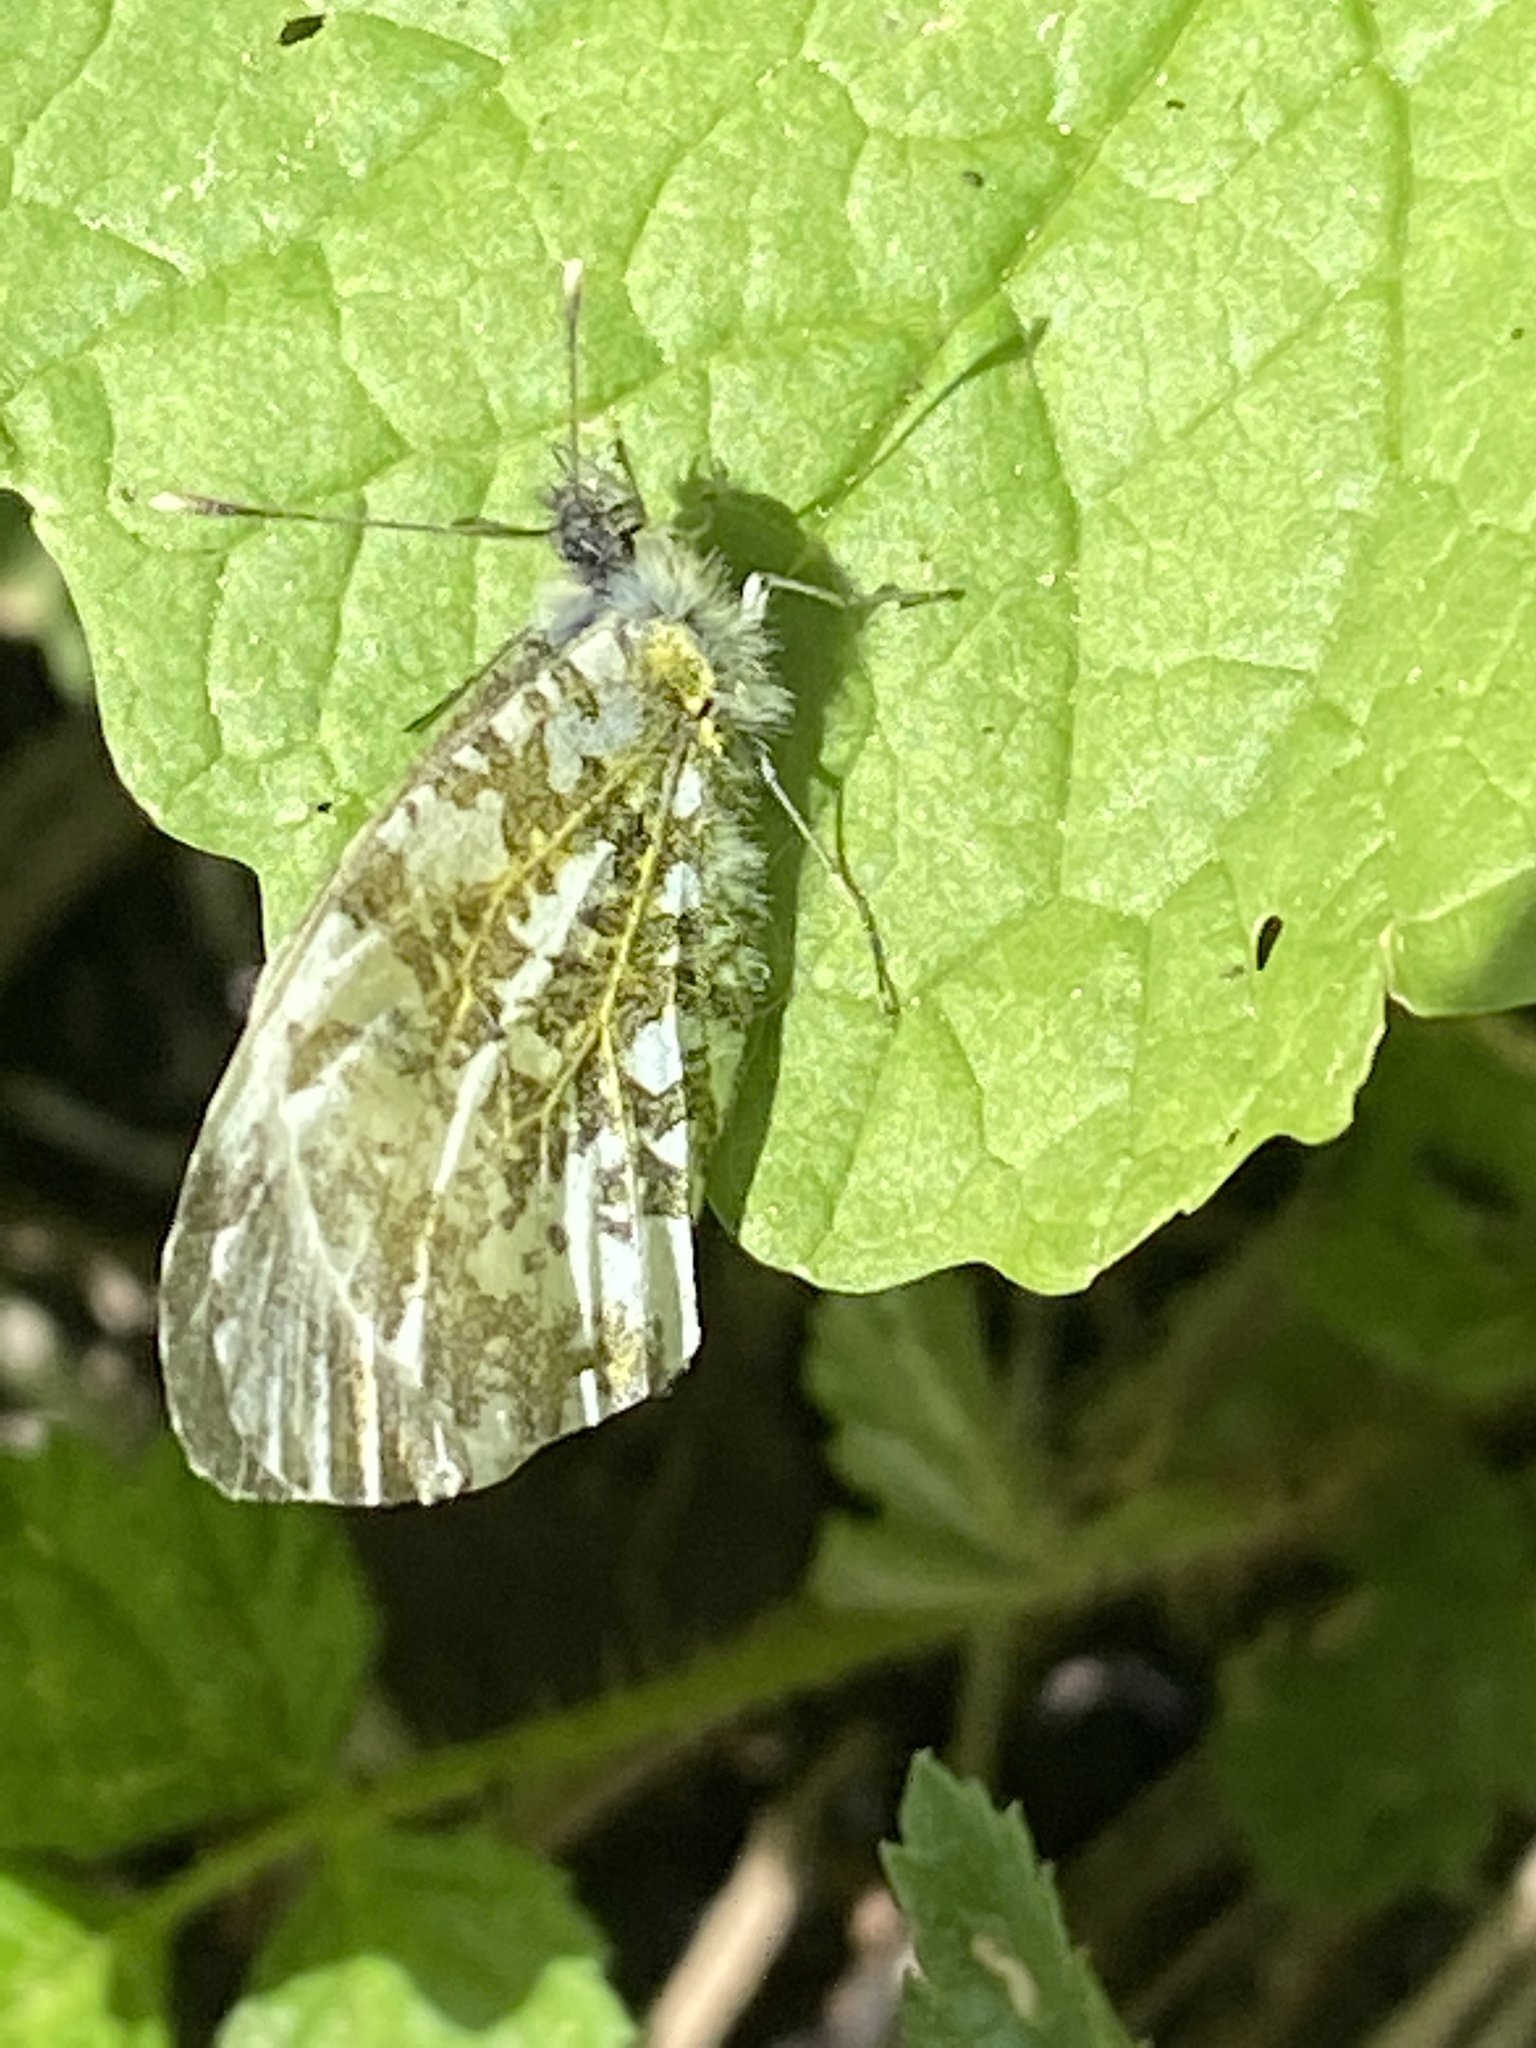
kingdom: Animalia
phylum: Arthropoda
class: Insecta
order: Lepidoptera
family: Pieridae
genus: Anthocharis
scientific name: Anthocharis cardamines
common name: Orange-tip
